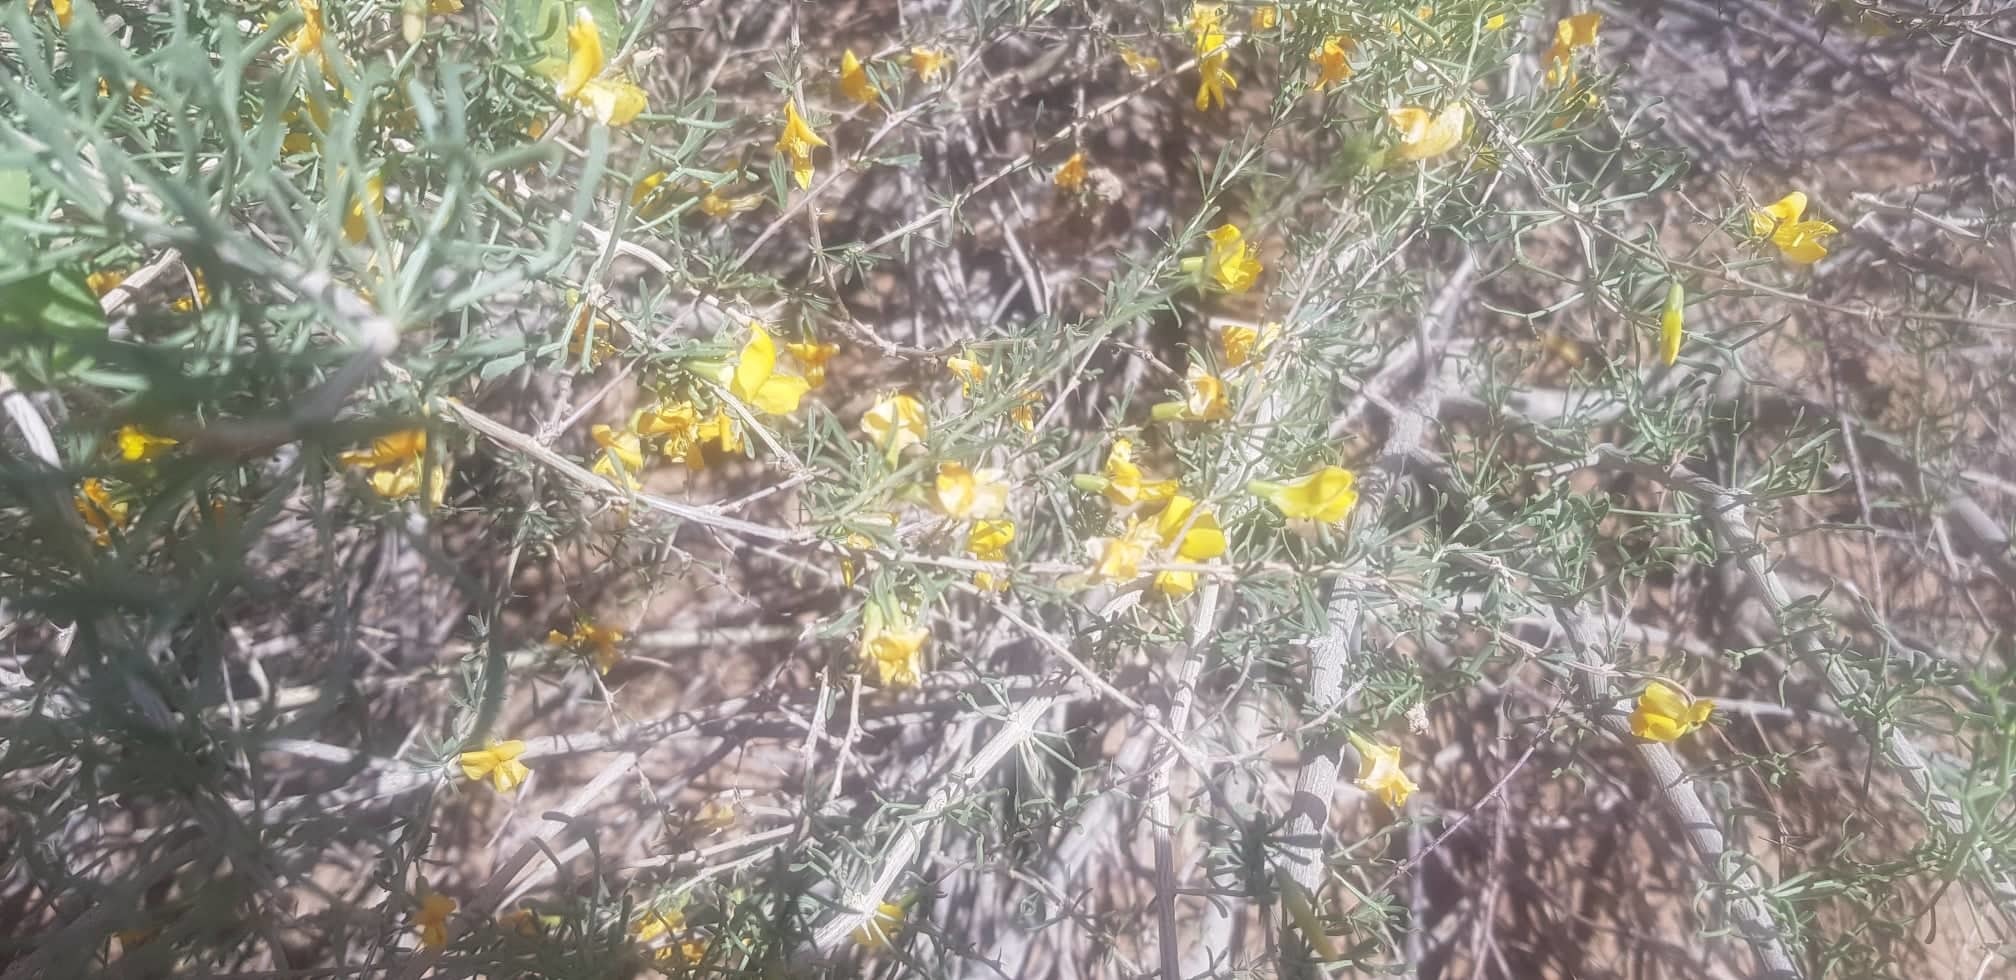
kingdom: Plantae
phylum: Tracheophyta
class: Magnoliopsida
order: Fabales
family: Fabaceae
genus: Caragana
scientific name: Caragana pygmaea
